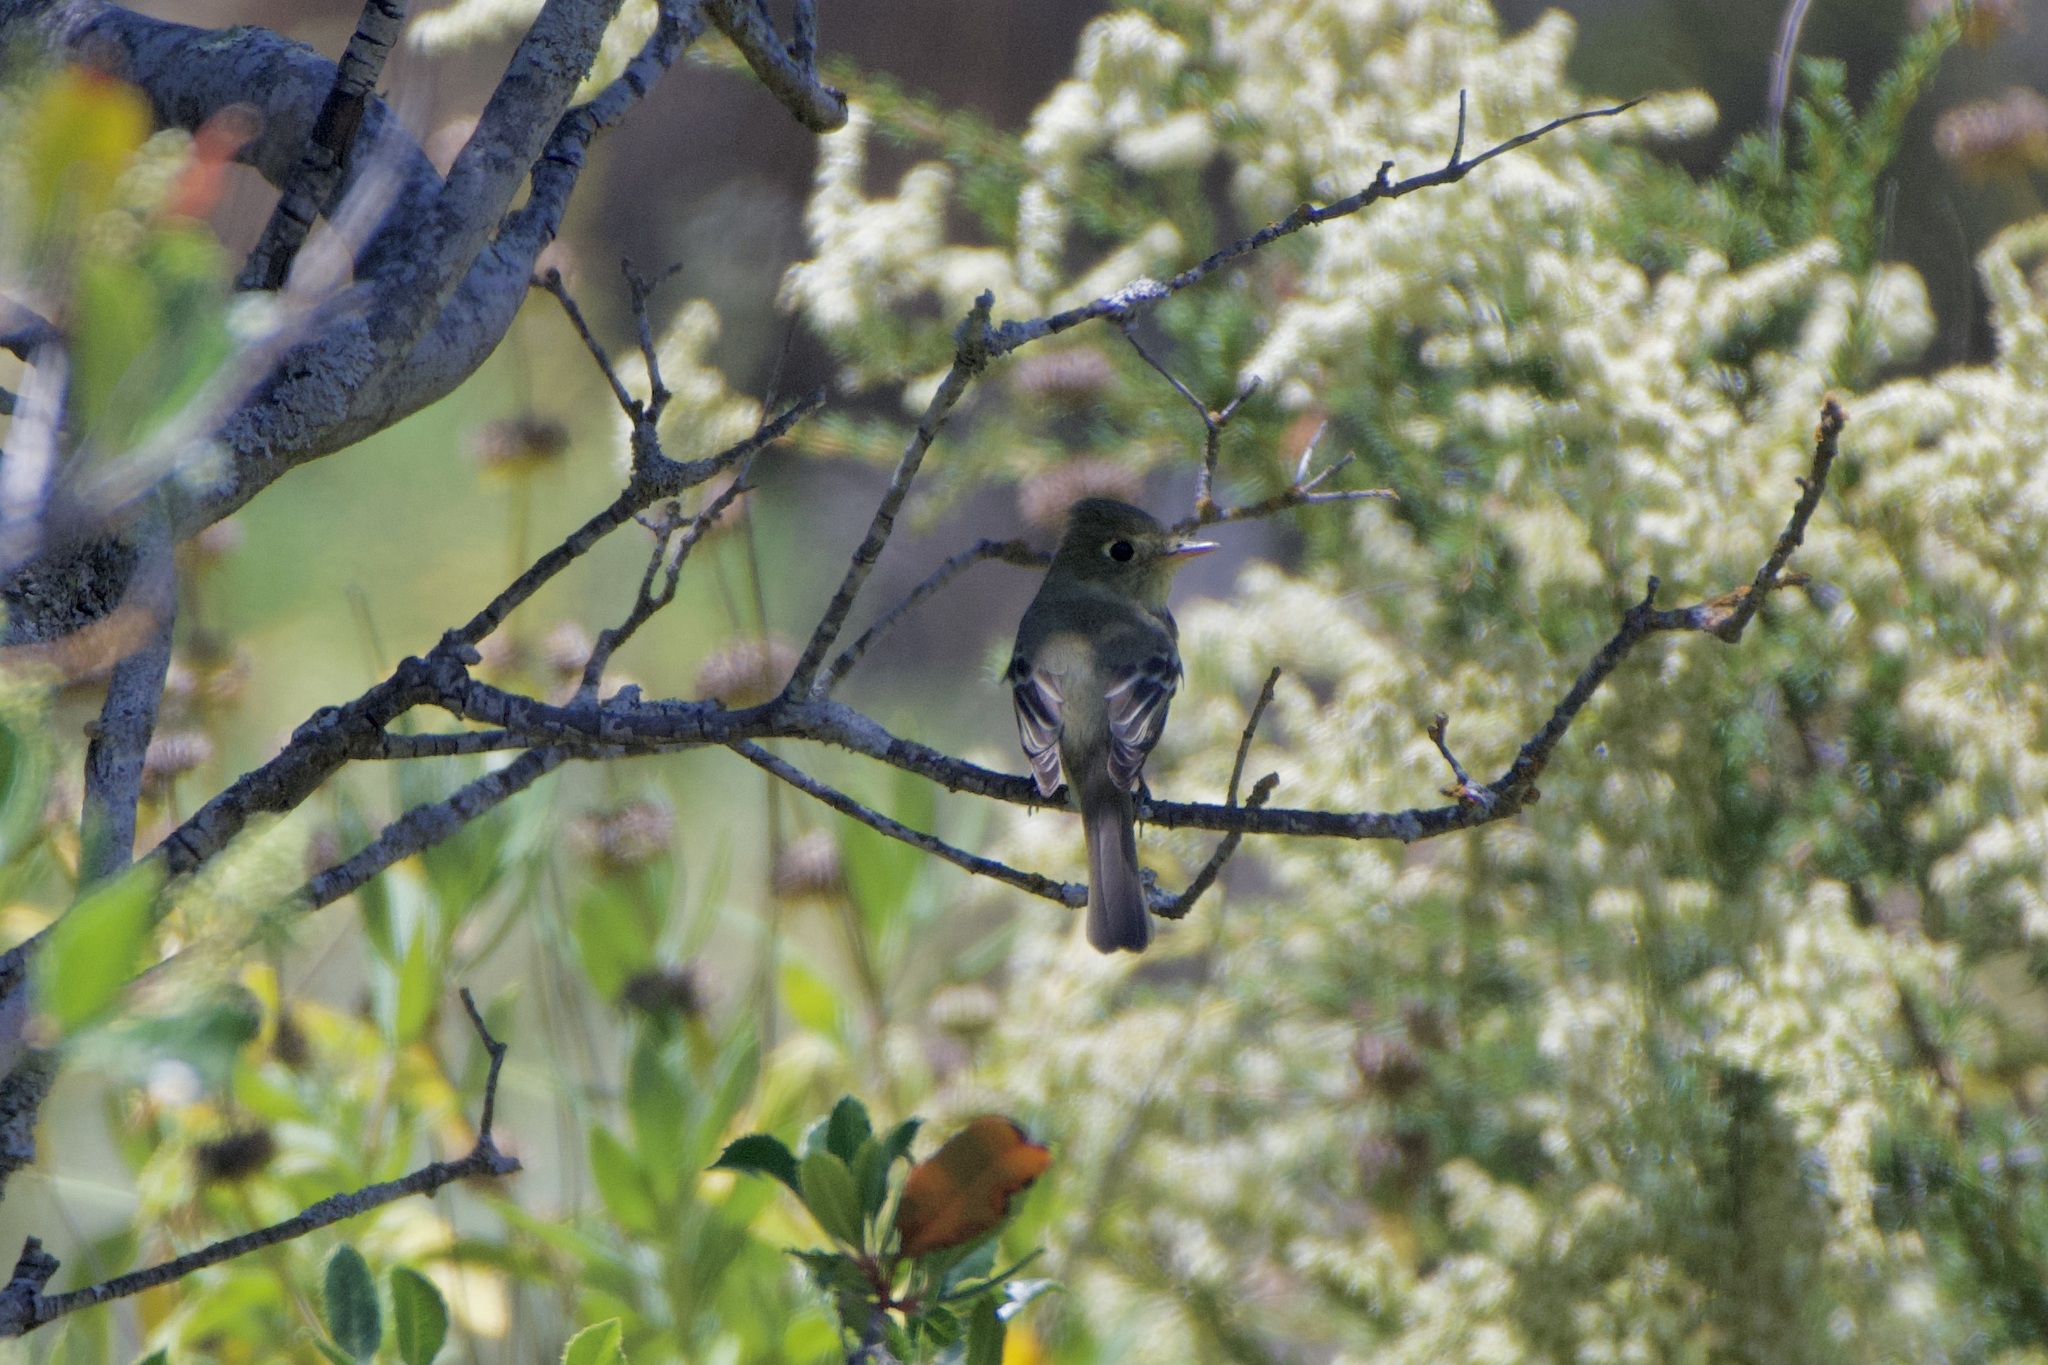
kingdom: Animalia
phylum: Chordata
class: Aves
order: Passeriformes
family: Tyrannidae
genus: Empidonax
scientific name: Empidonax difficilis
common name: Pacific-slope flycatcher
